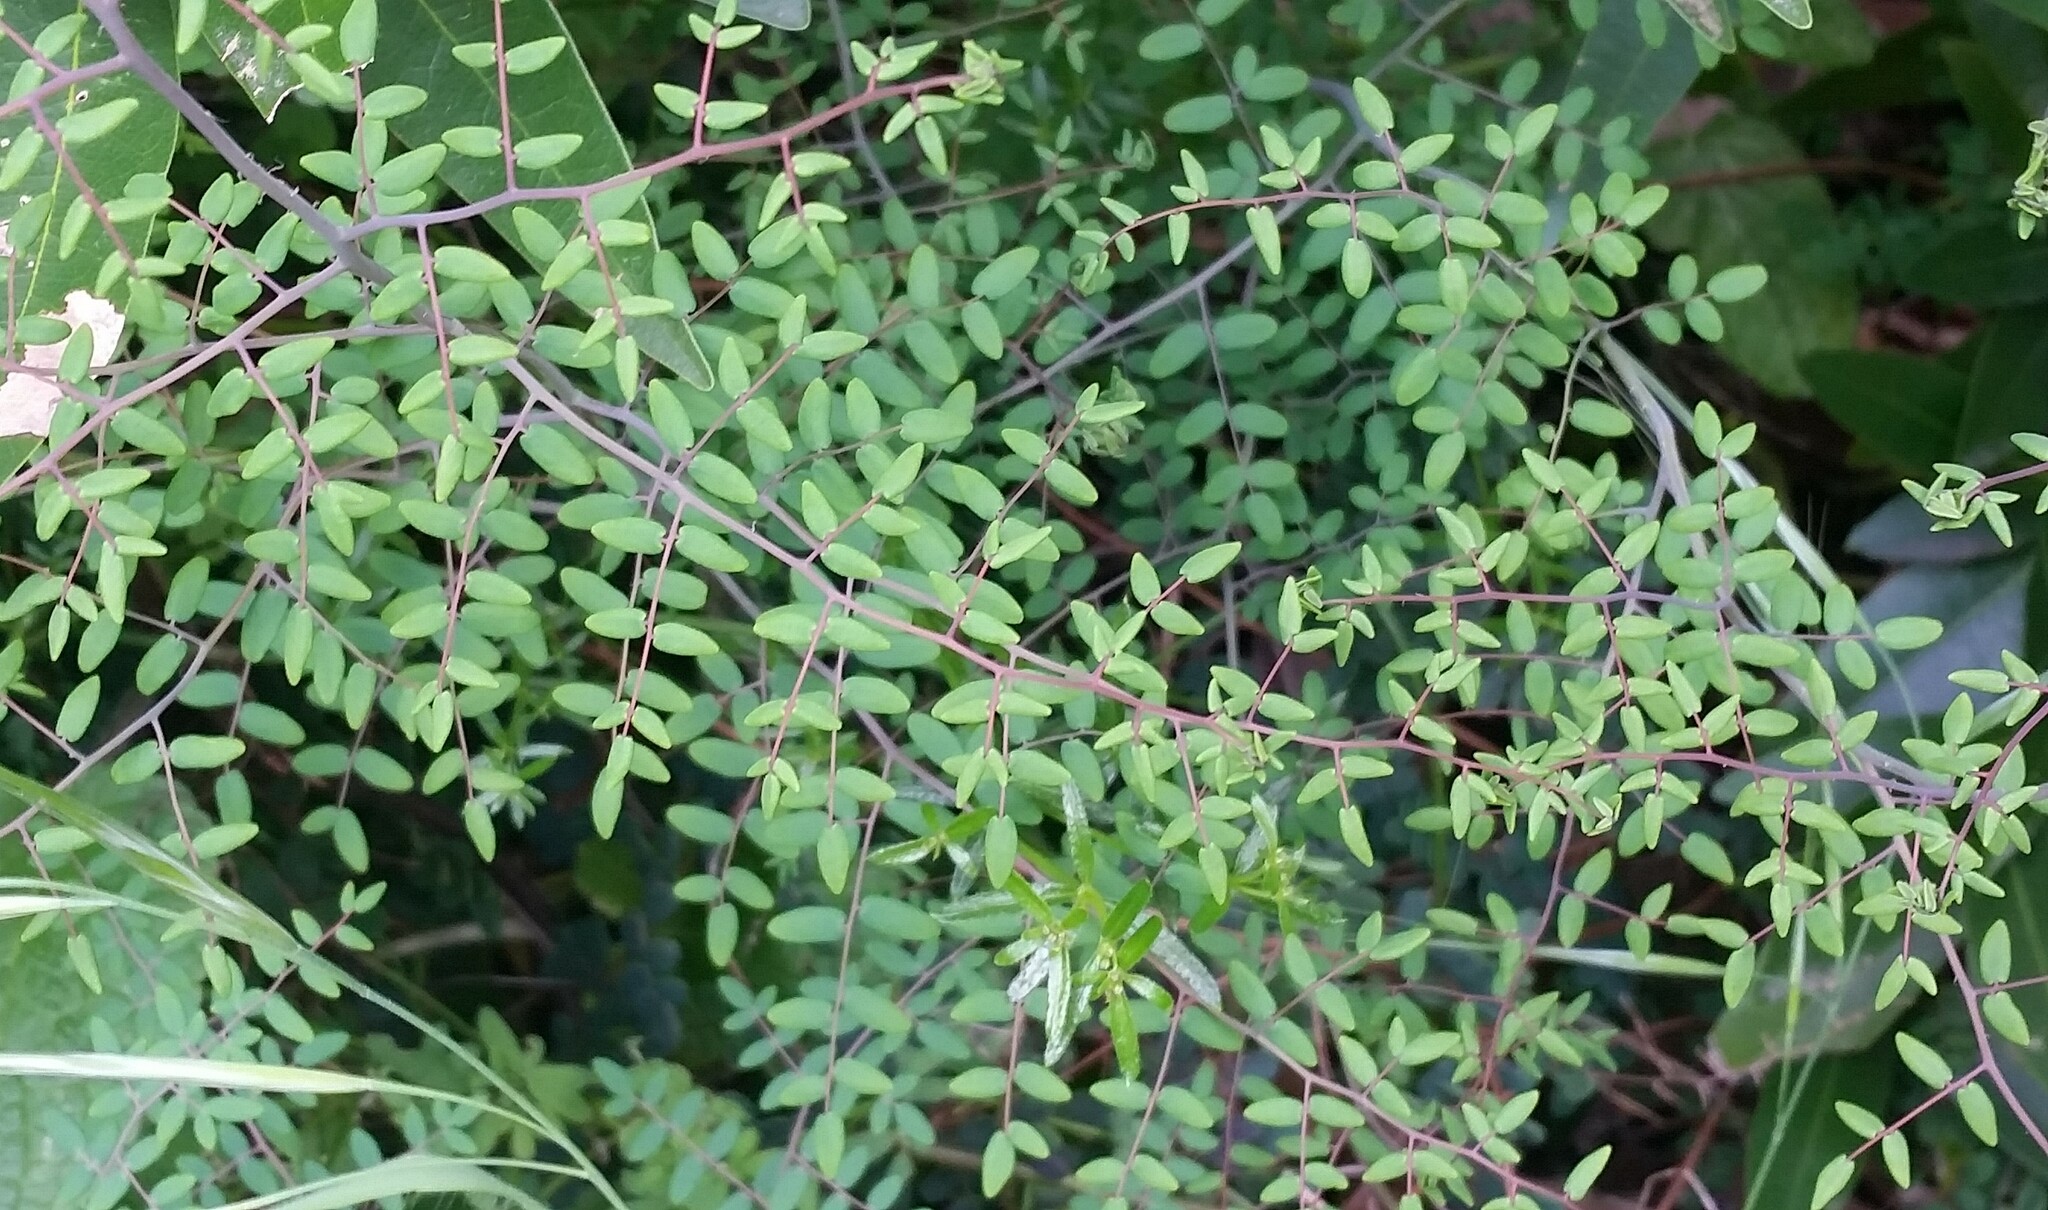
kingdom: Plantae
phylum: Tracheophyta
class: Polypodiopsida
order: Polypodiales
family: Pteridaceae
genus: Pellaea
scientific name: Pellaea andromedifolia
